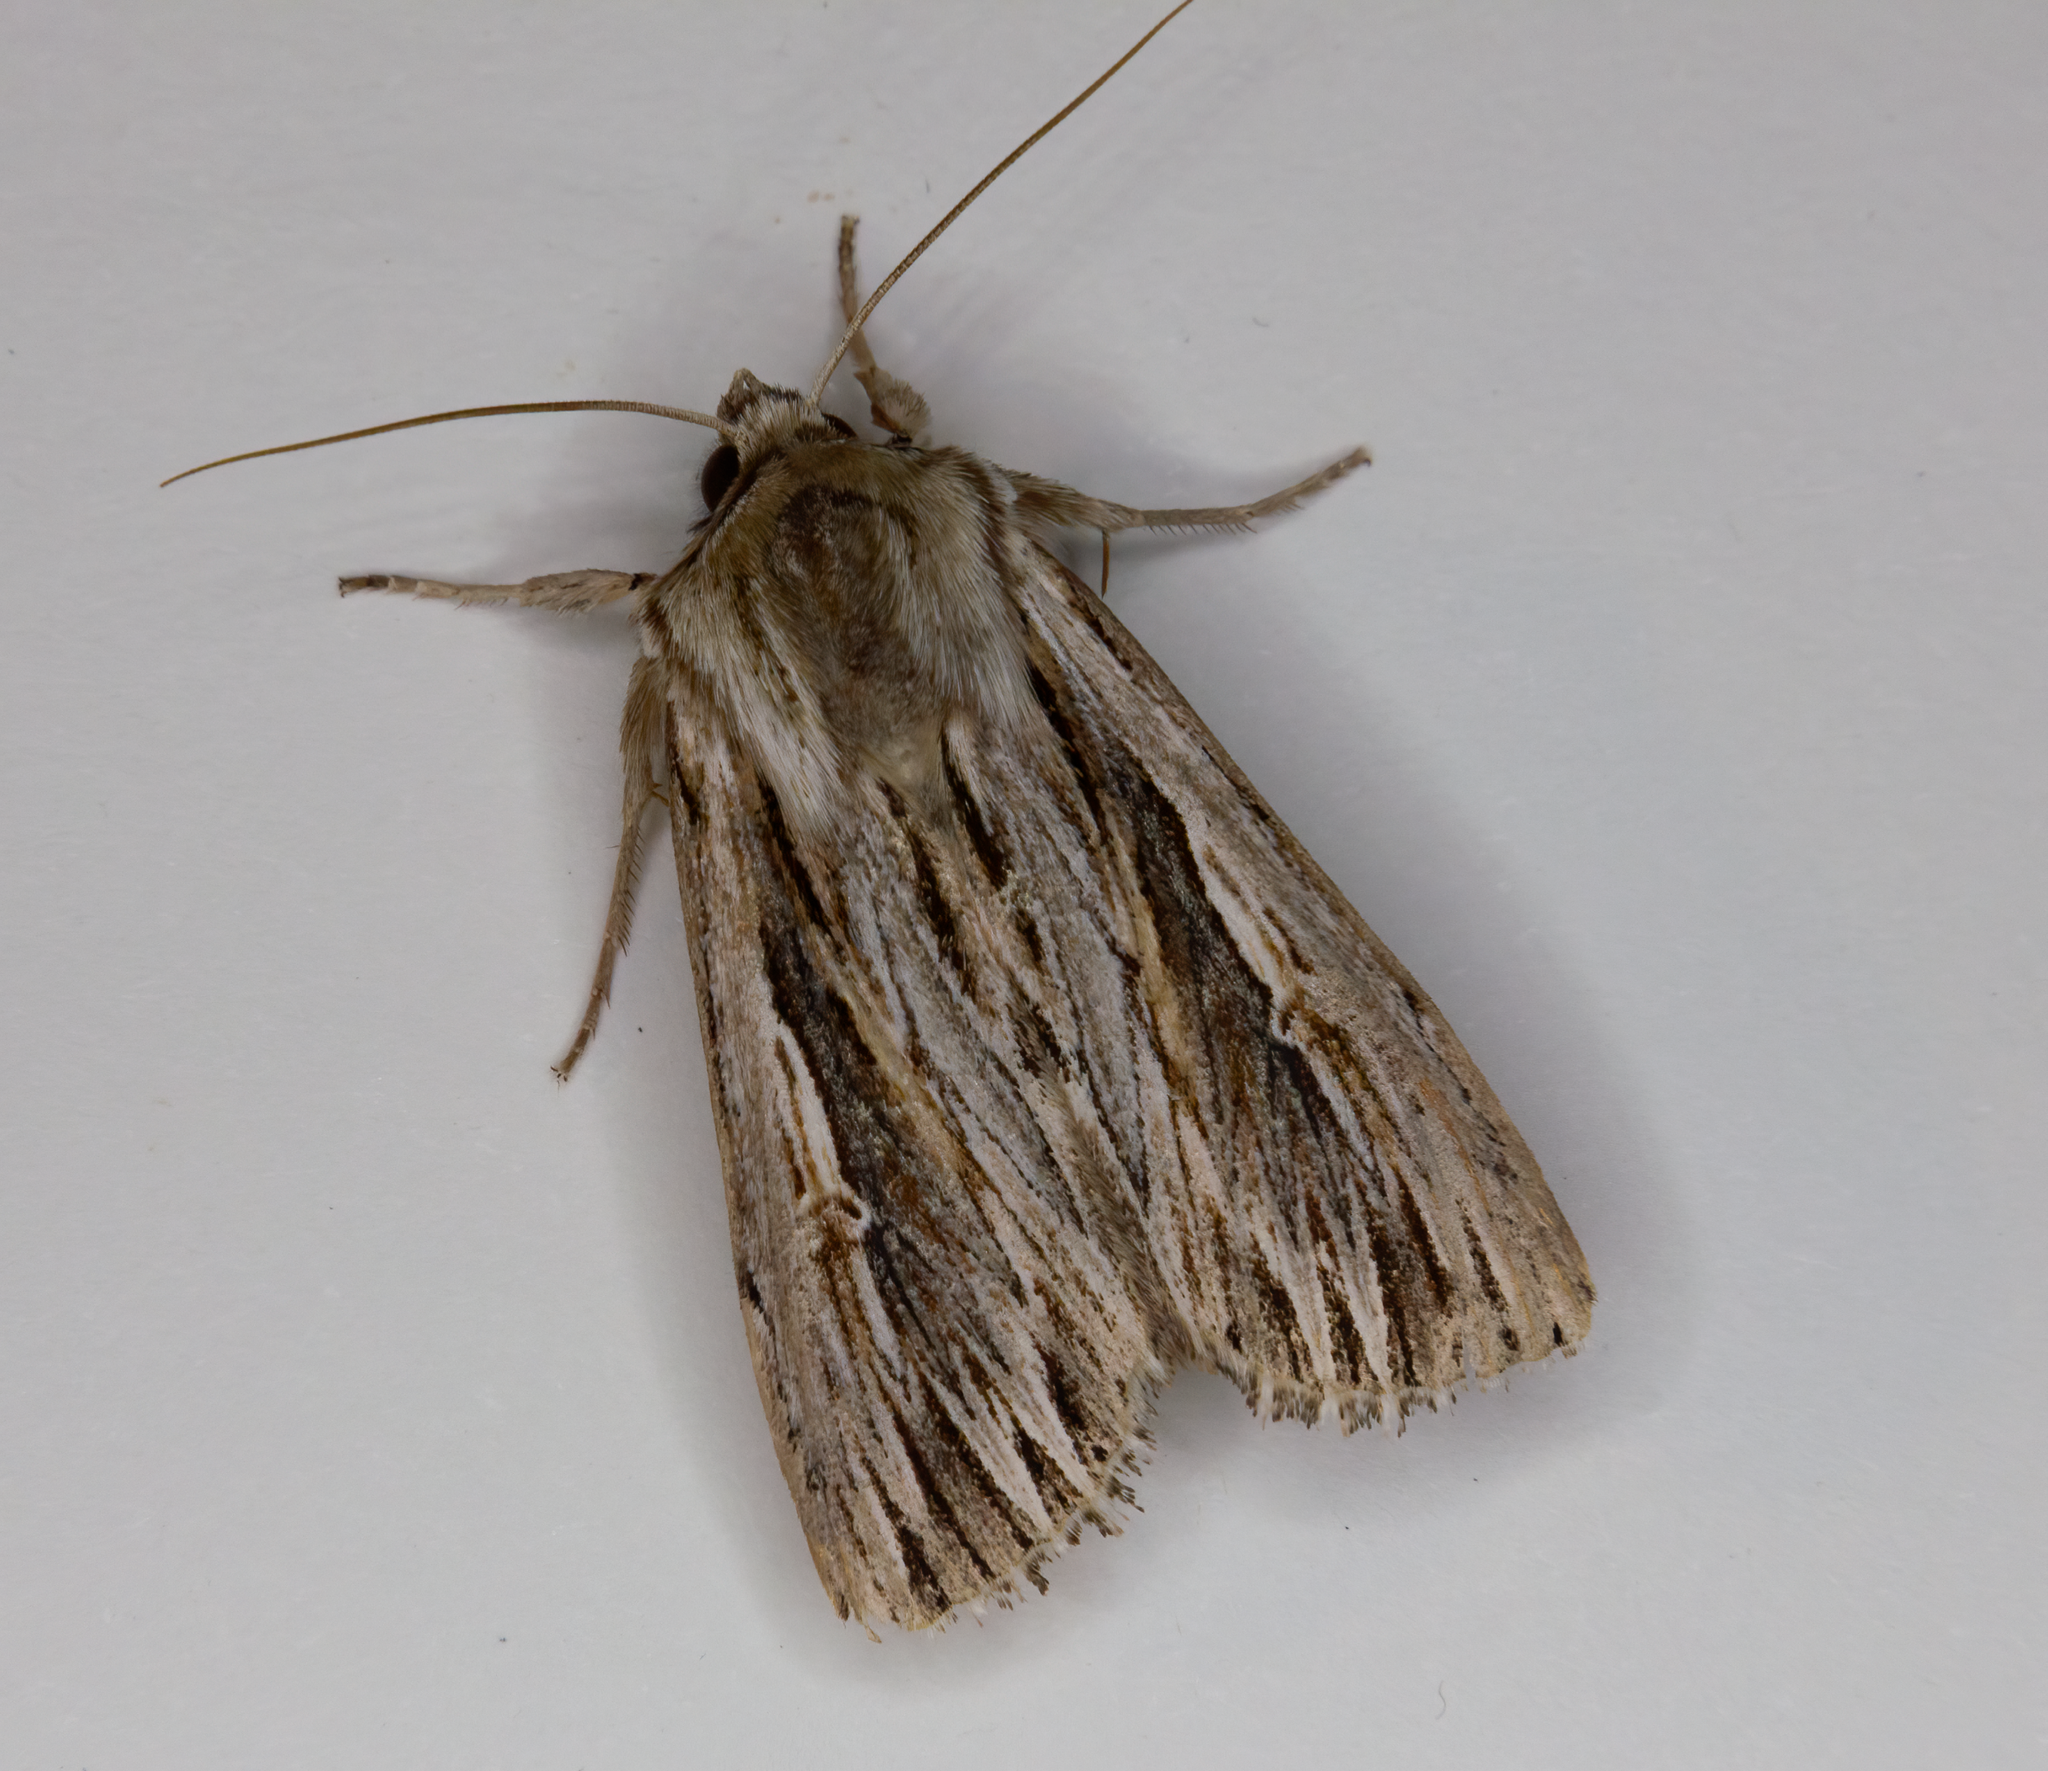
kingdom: Animalia
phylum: Arthropoda
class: Insecta
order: Lepidoptera
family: Noctuidae
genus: Persectania
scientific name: Persectania aversa
